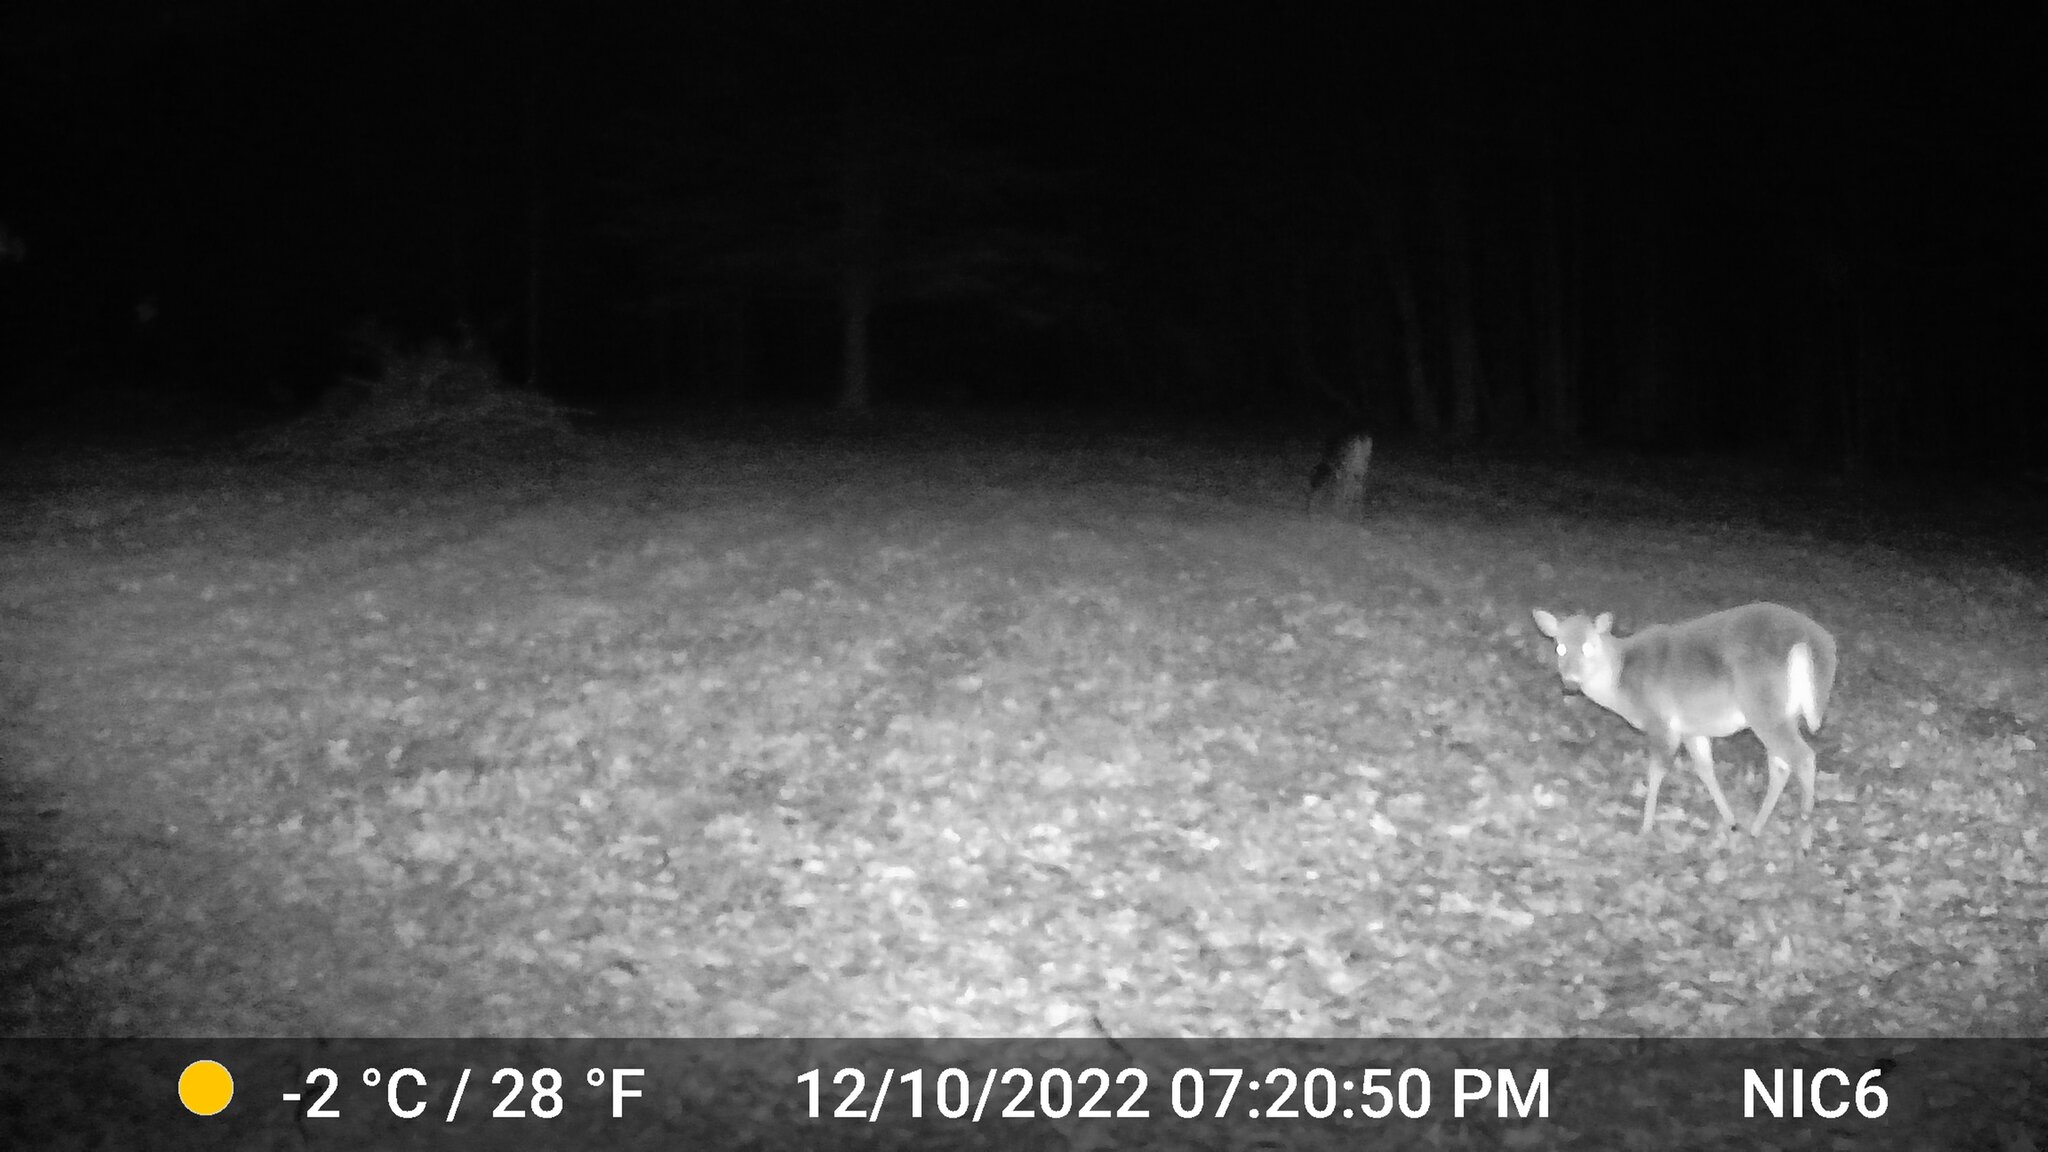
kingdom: Animalia
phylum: Chordata
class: Mammalia
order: Artiodactyla
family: Cervidae
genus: Odocoileus
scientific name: Odocoileus virginianus
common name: White-tailed deer
